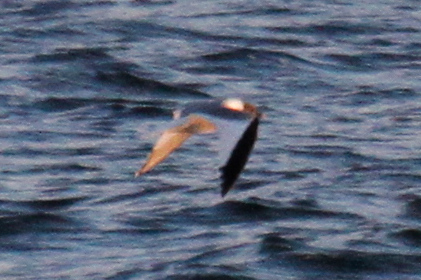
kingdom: Animalia
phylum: Chordata
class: Aves
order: Charadriiformes
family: Laridae
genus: Xema
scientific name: Xema sabini
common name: Sabine's gull
